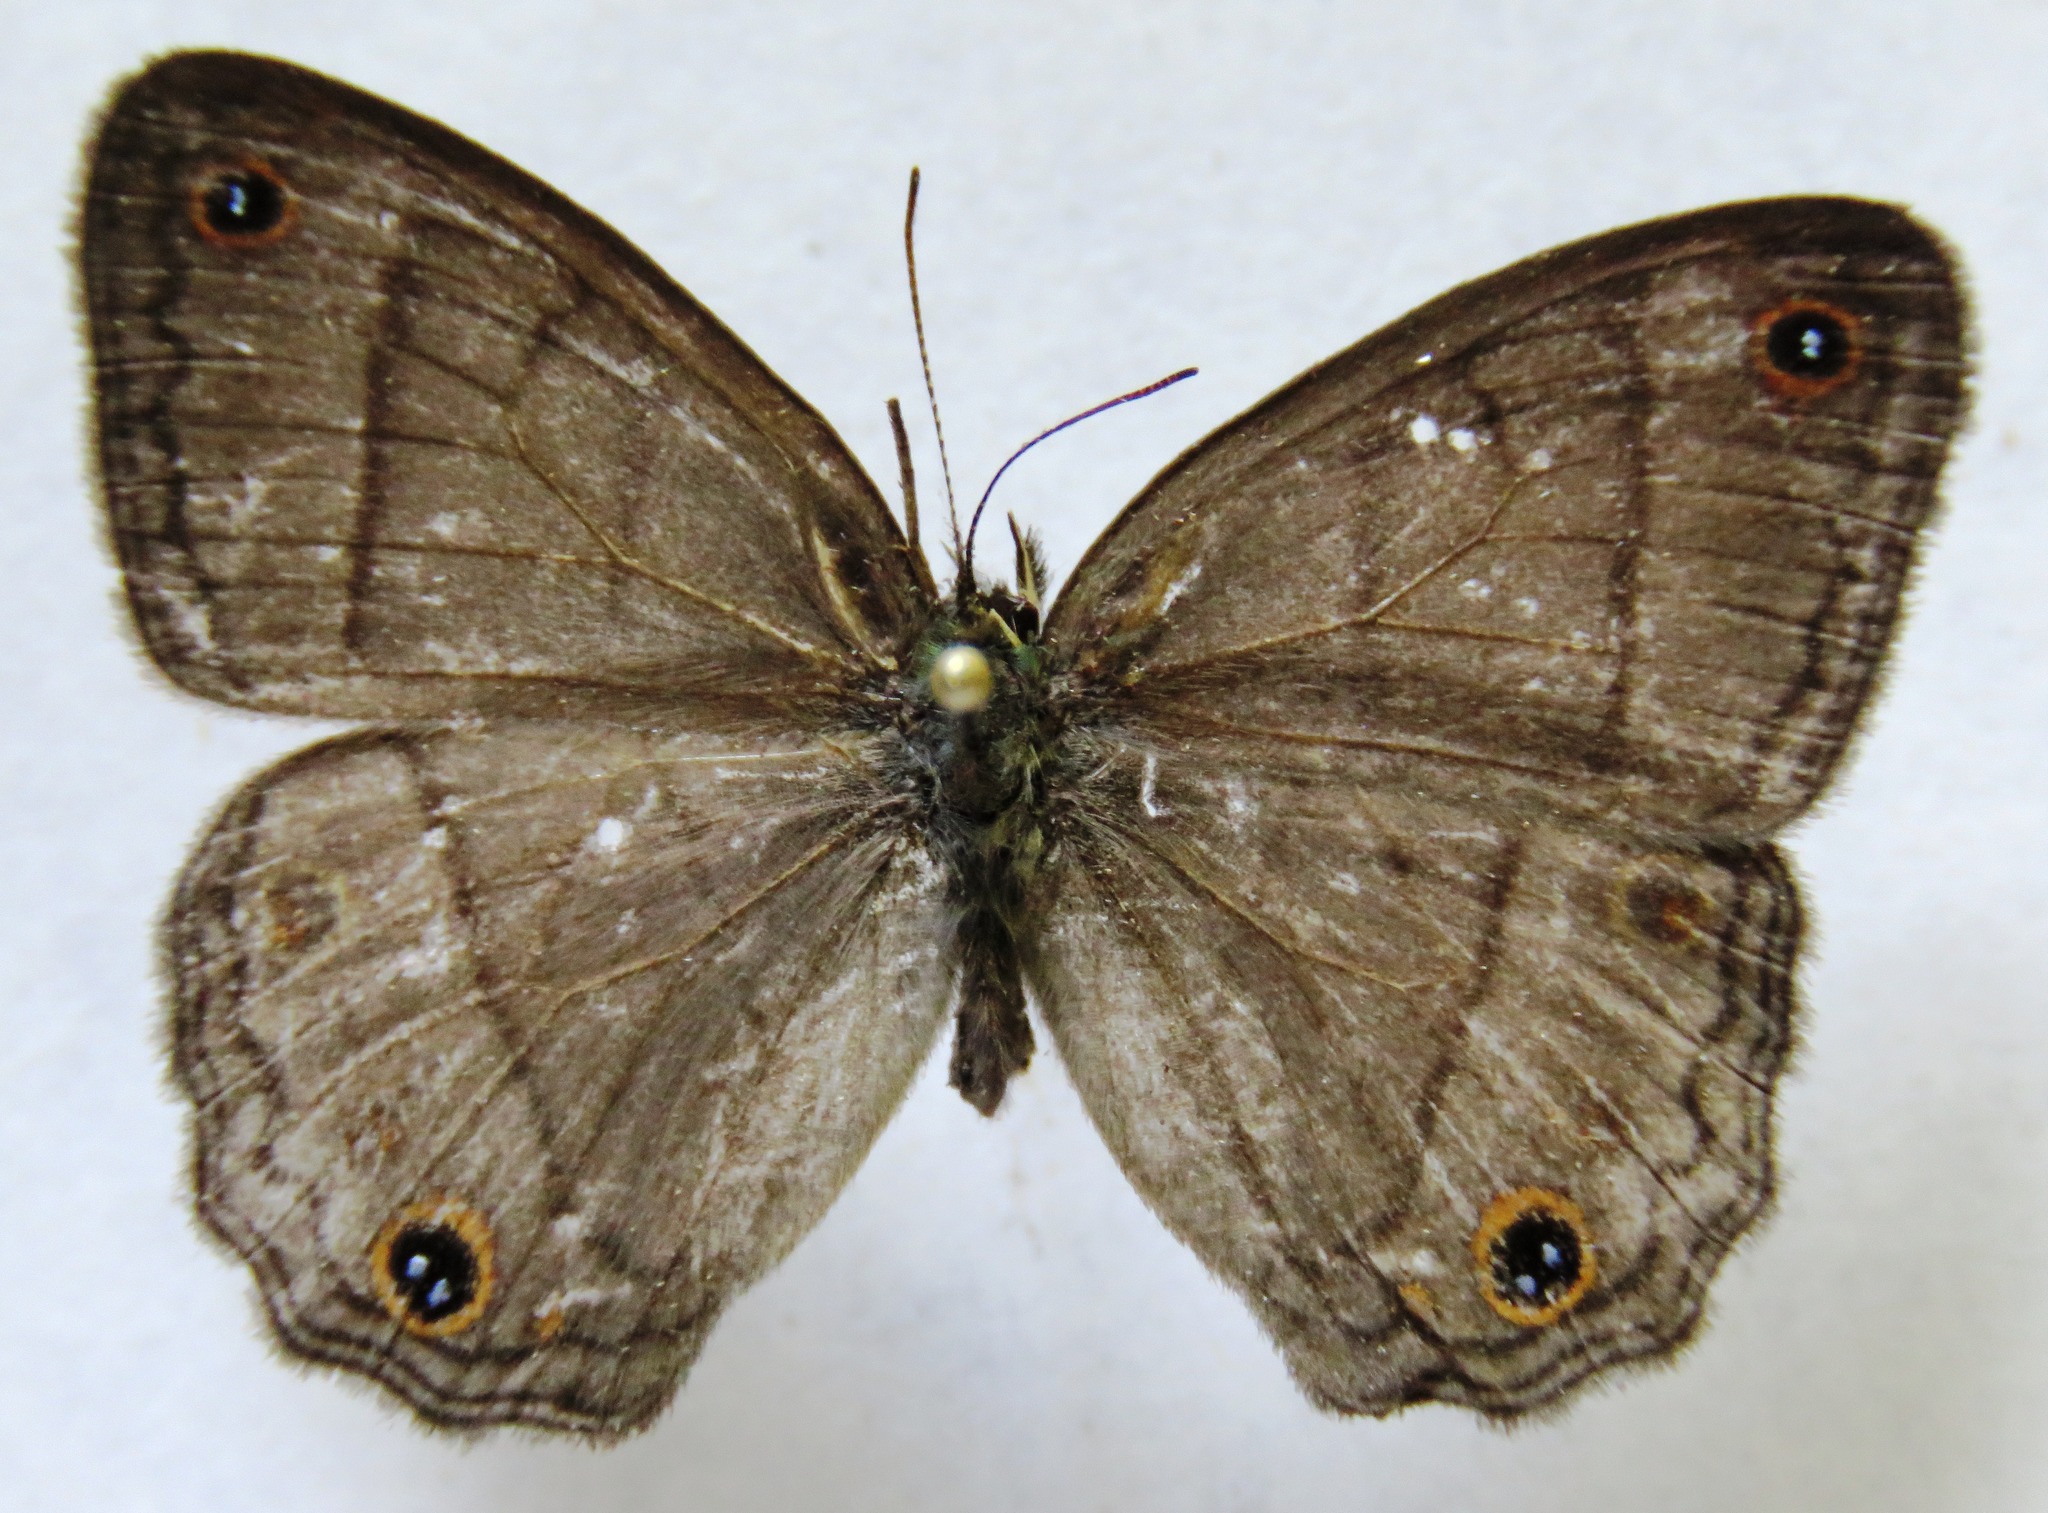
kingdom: Animalia
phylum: Arthropoda
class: Insecta
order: Lepidoptera
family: Nymphalidae
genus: Euptychia
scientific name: Euptychia Cissia pompilia
